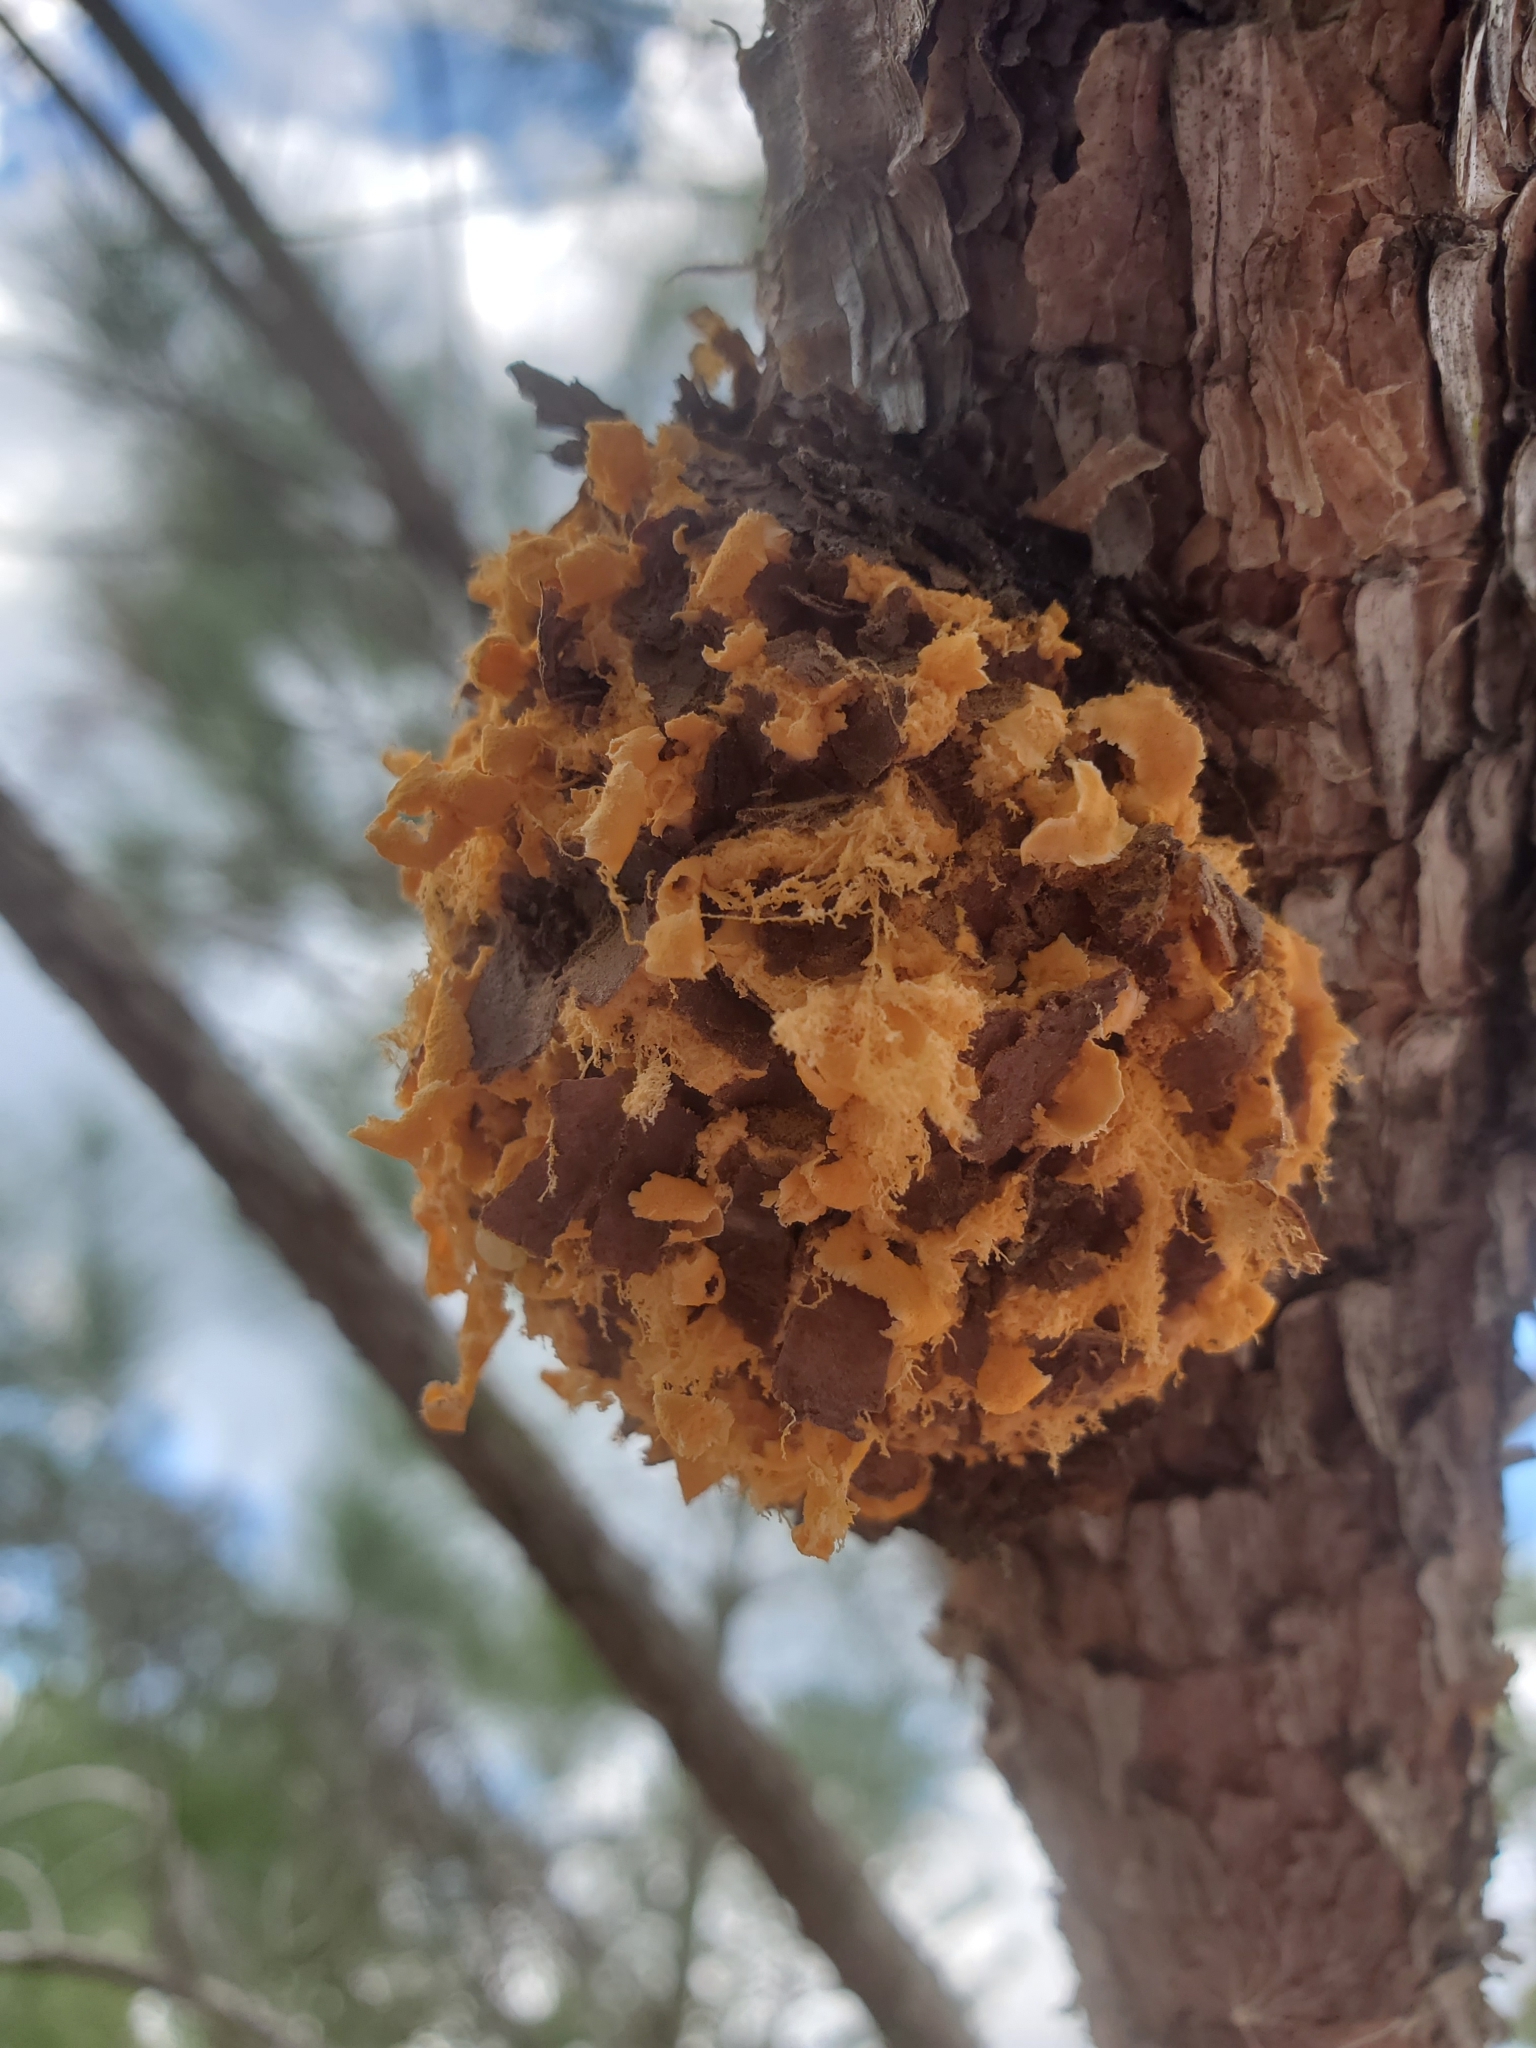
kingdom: Fungi
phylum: Basidiomycota
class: Pucciniomycetes
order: Pucciniales
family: Cronartiaceae
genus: Cronartium
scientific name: Cronartium quercuum
